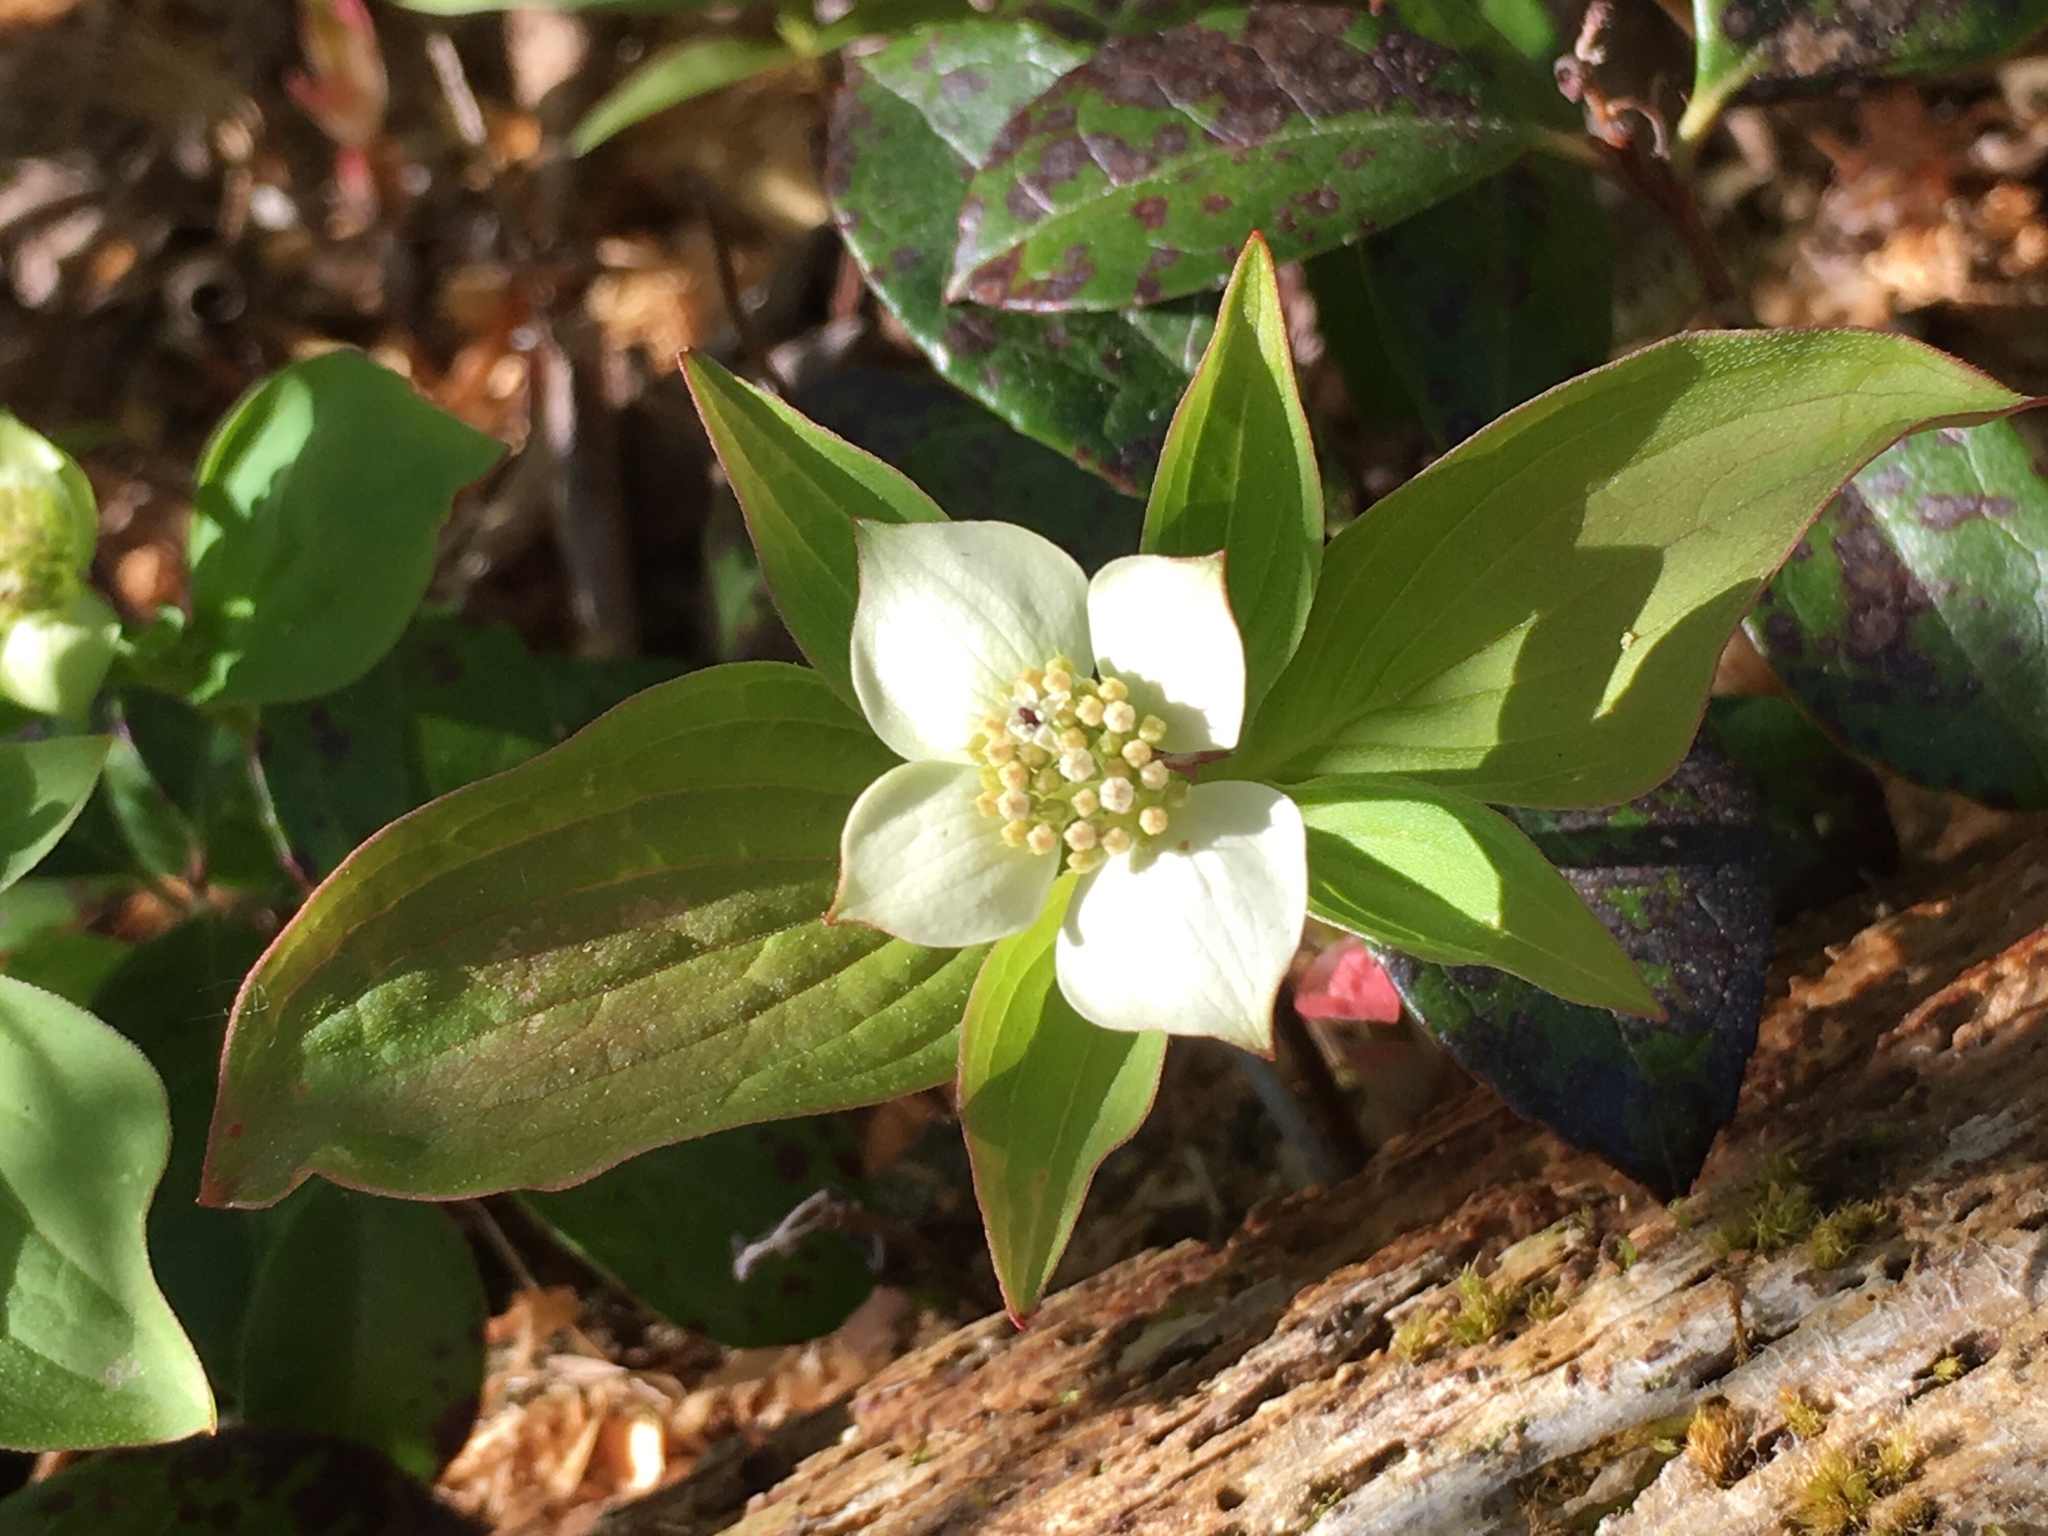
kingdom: Plantae
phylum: Tracheophyta
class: Magnoliopsida
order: Cornales
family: Cornaceae
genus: Cornus
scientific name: Cornus canadensis
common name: Creeping dogwood
